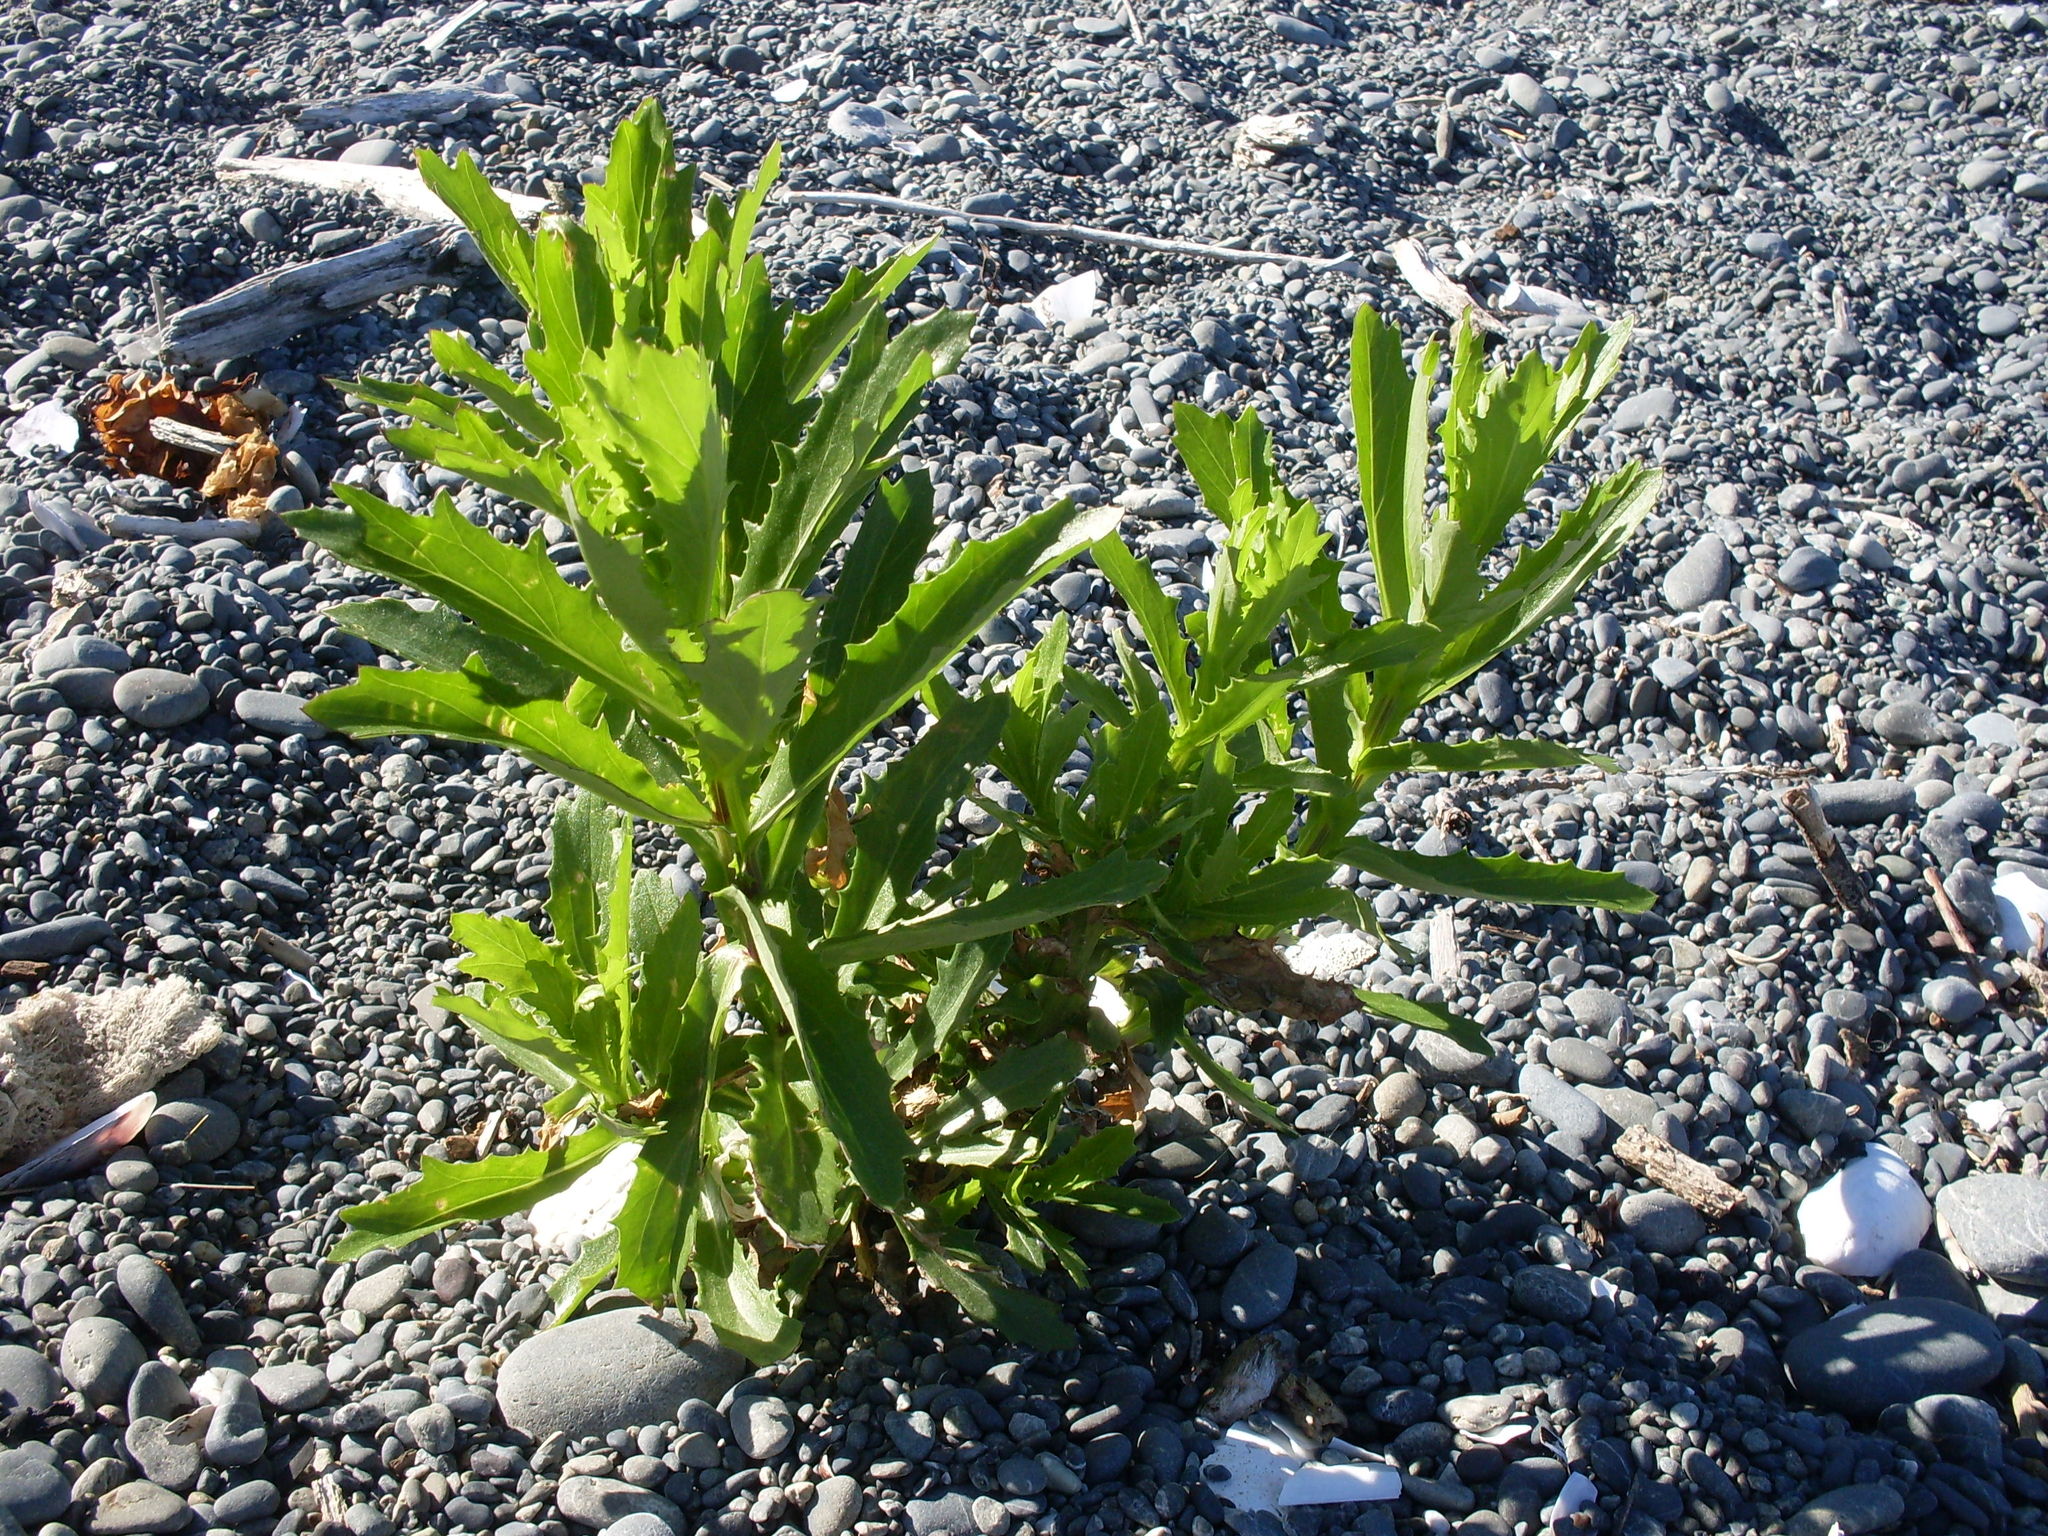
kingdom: Plantae
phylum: Tracheophyta
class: Magnoliopsida
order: Asterales
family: Asteraceae
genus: Senecio
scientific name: Senecio glastifolius
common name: Woad-leaved ragwort
